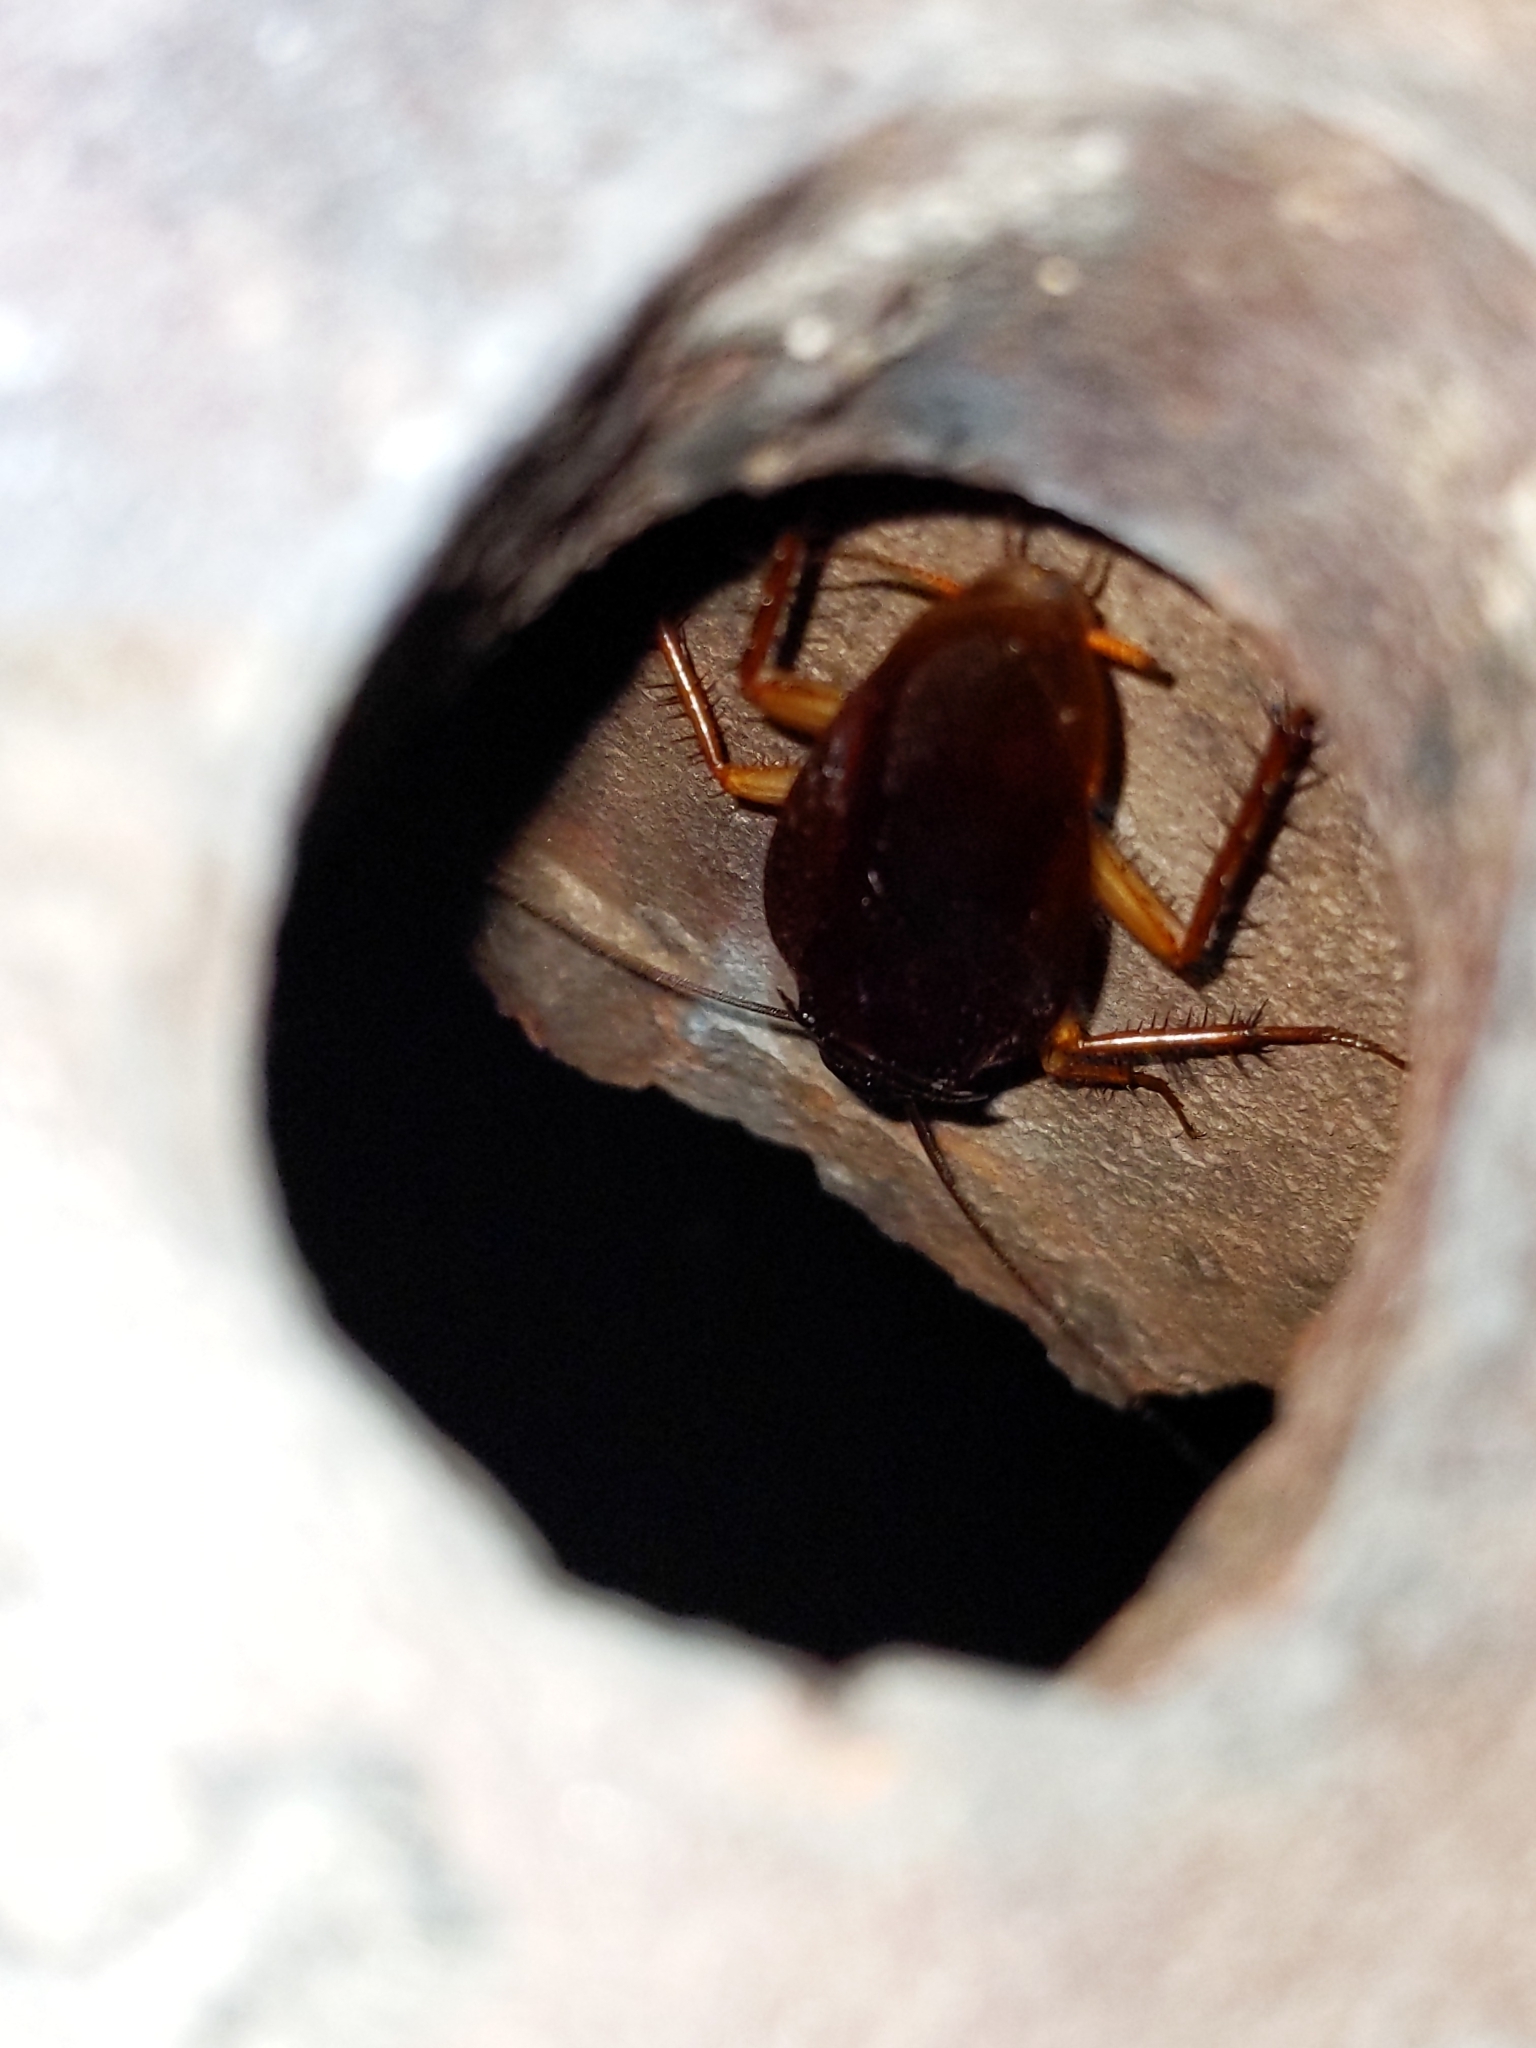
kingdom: Animalia
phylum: Arthropoda
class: Insecta
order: Blattodea
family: Blattidae
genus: Periplaneta
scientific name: Periplaneta americana
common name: American cockroach
